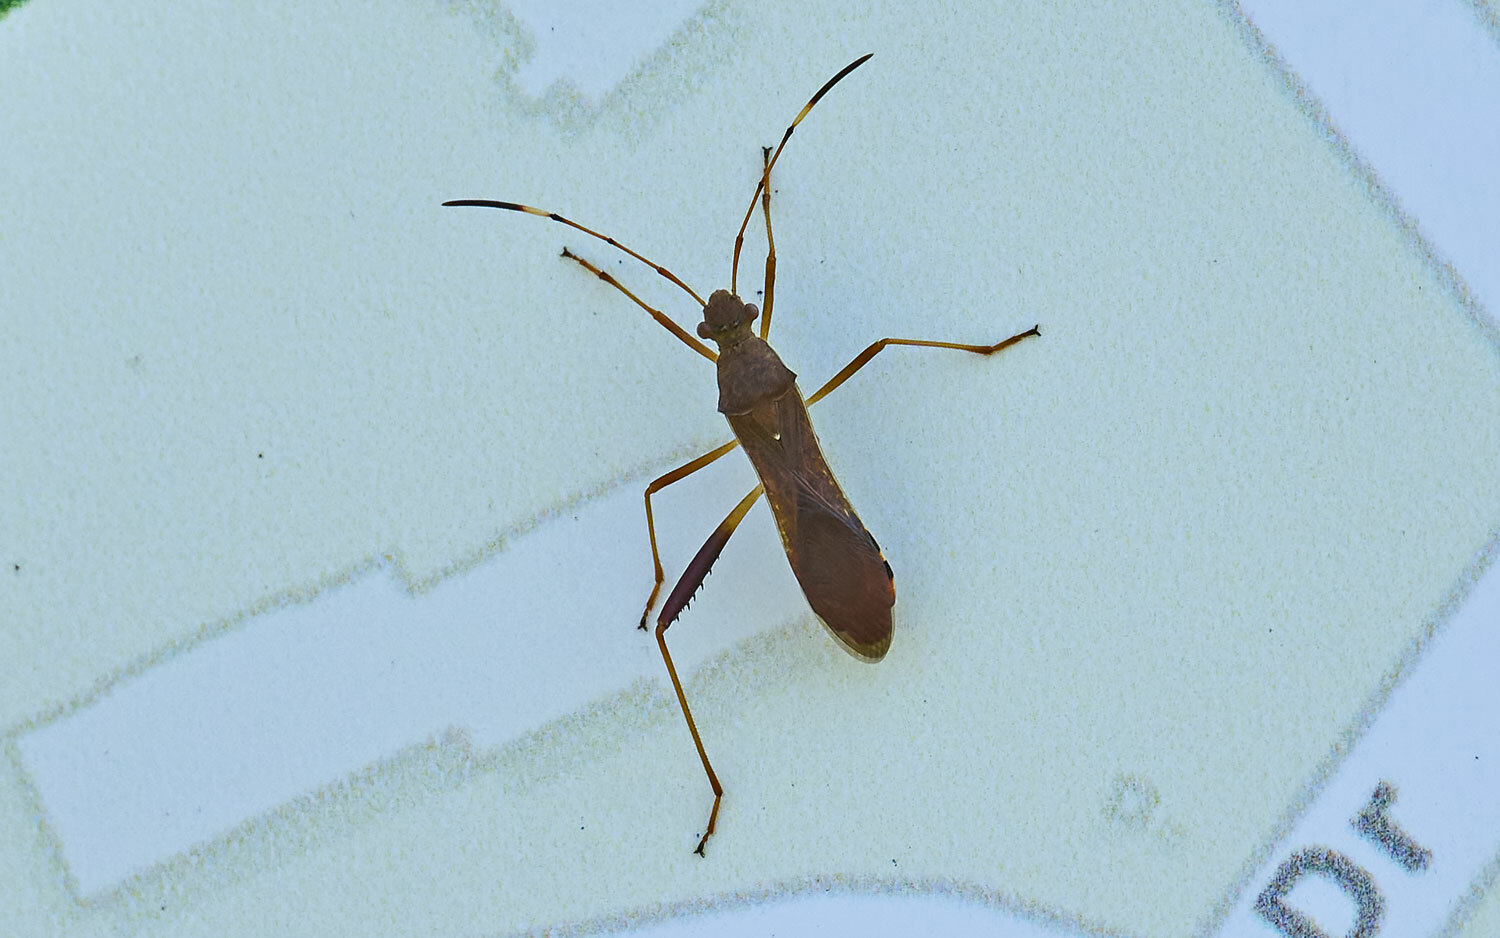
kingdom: Animalia
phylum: Arthropoda
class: Insecta
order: Hemiptera
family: Alydidae
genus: Megalotomus
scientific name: Megalotomus quinquespinosus
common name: Lupine bug
